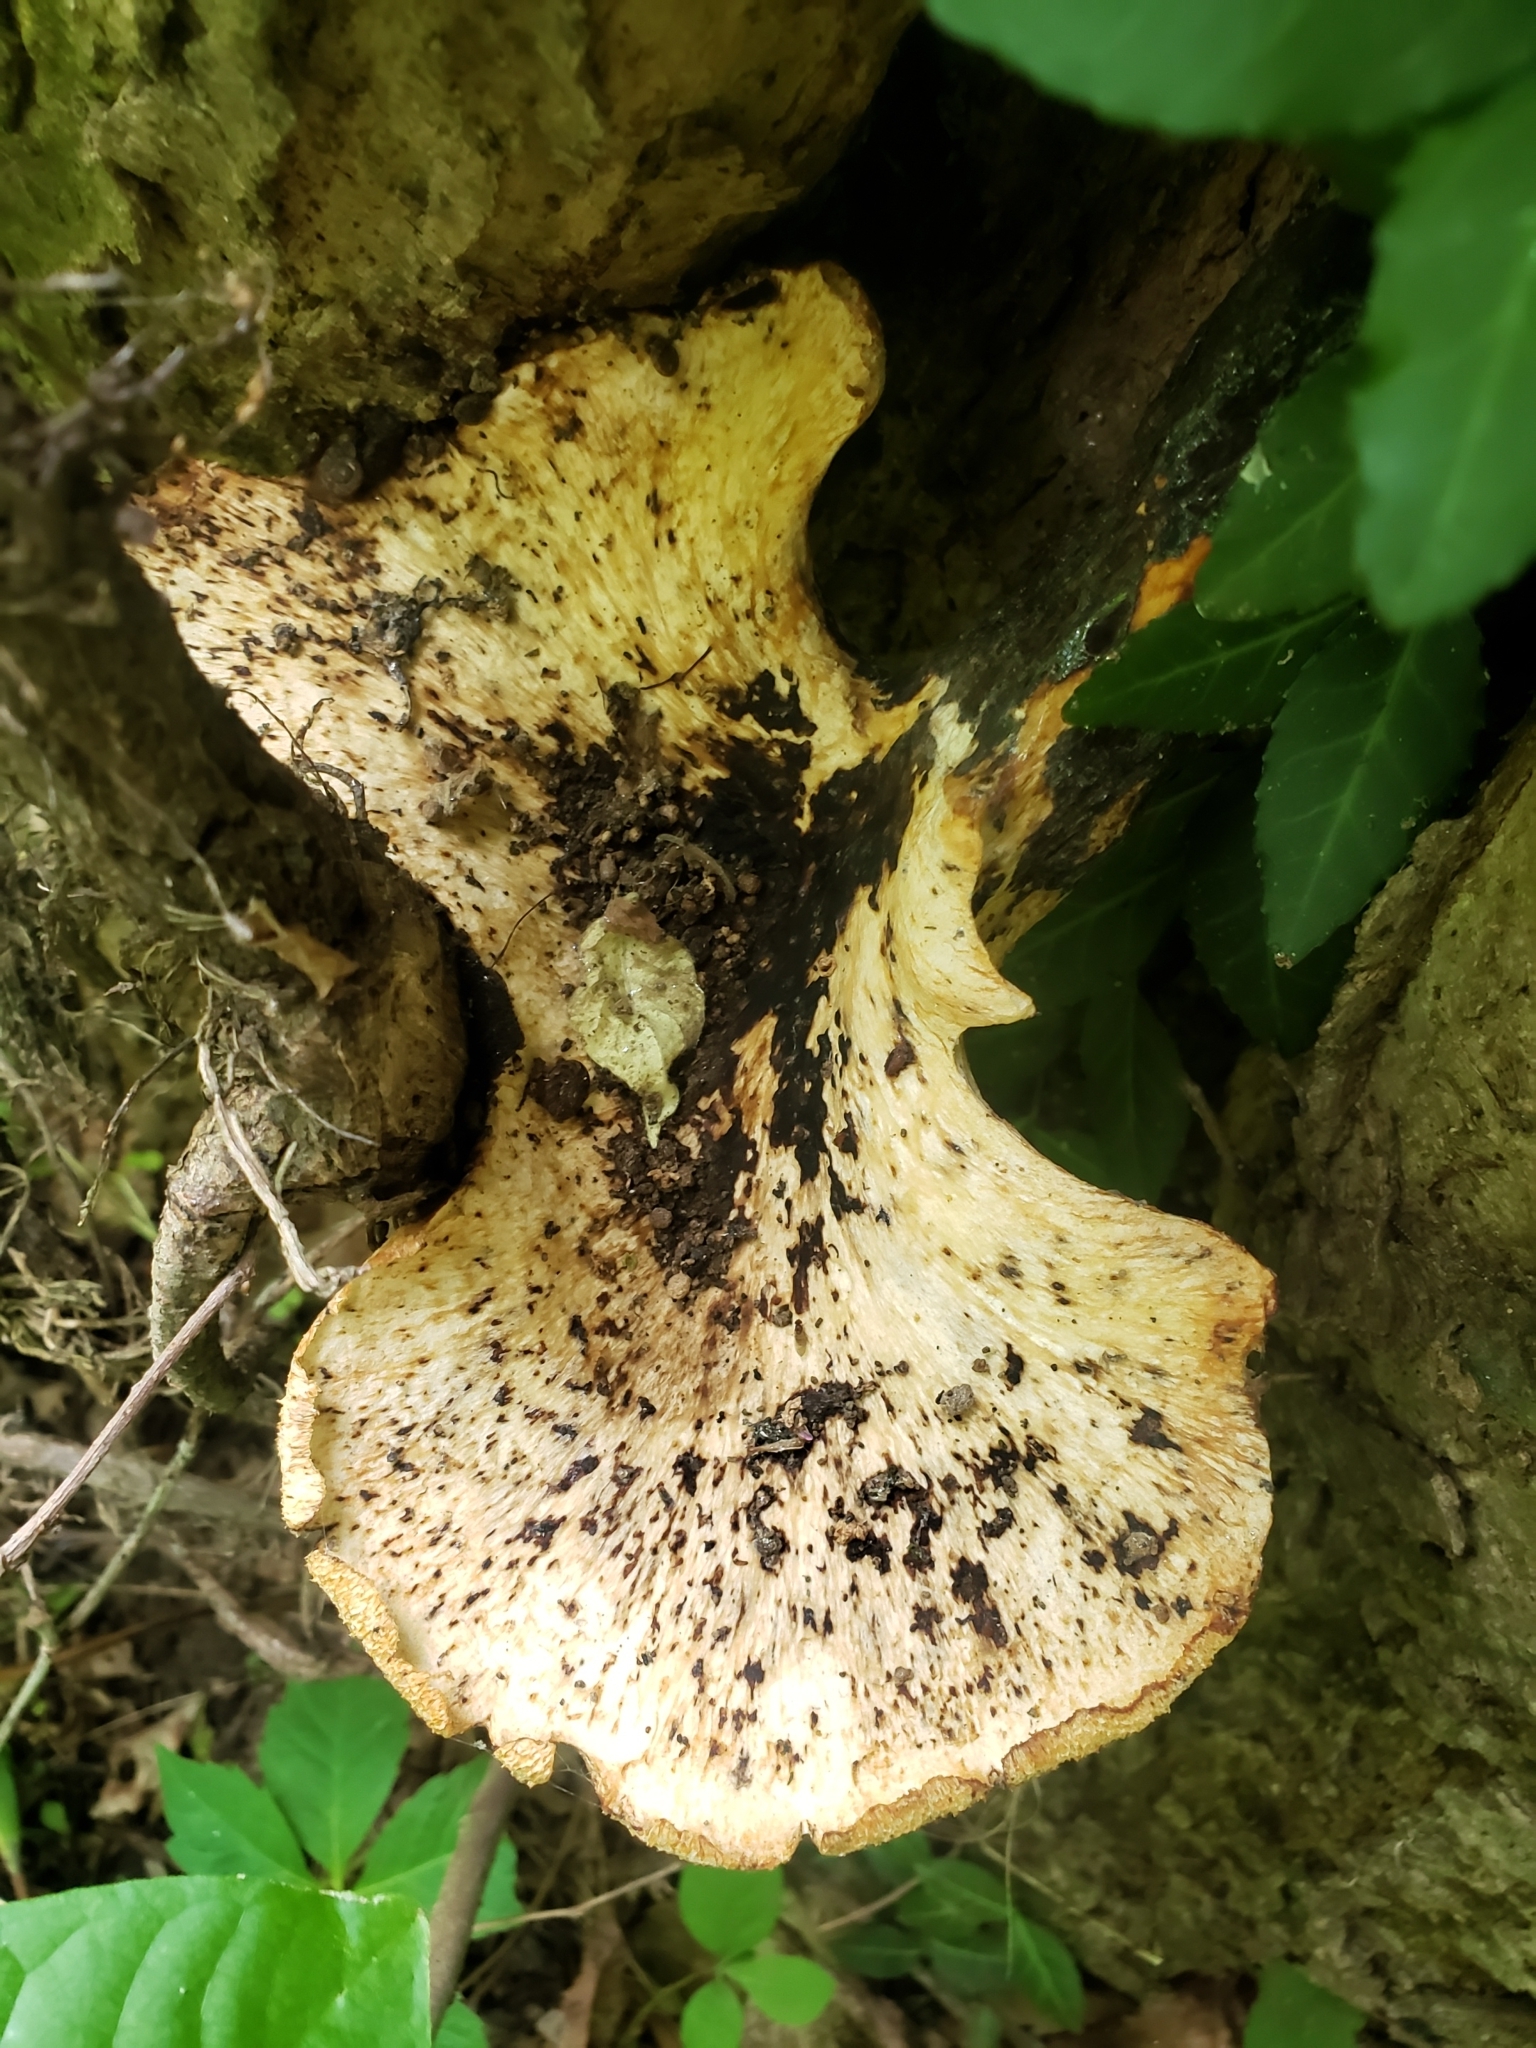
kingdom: Fungi
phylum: Basidiomycota
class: Agaricomycetes
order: Polyporales
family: Polyporaceae
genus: Cerioporus
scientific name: Cerioporus squamosus
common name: Dryad's saddle
